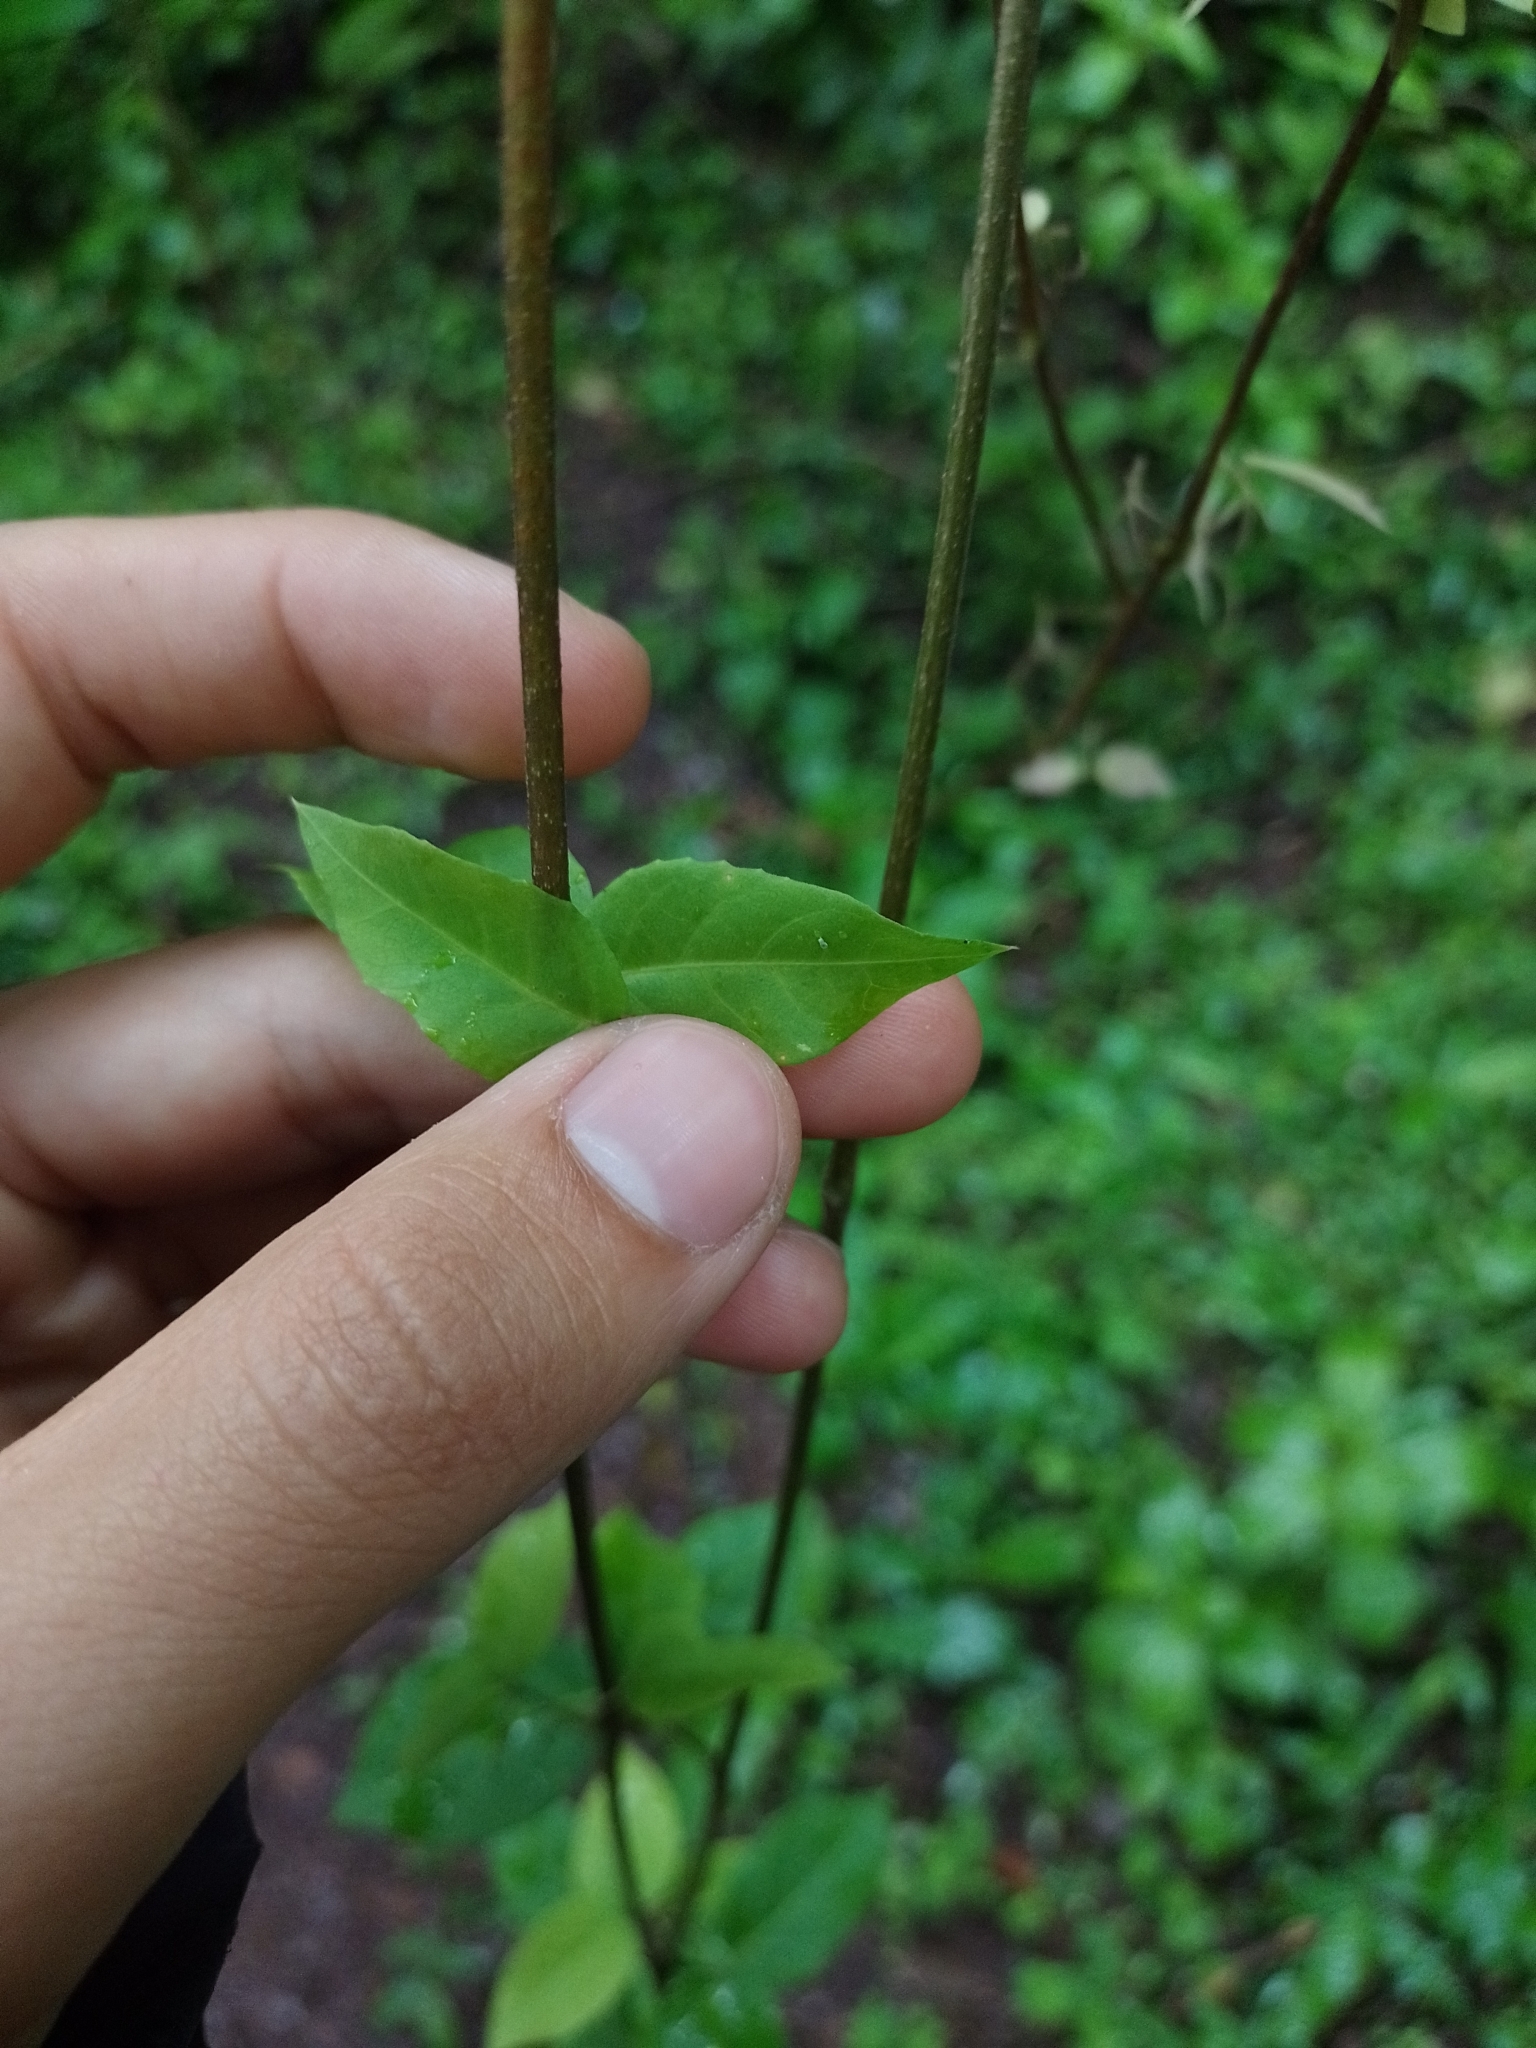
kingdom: Plantae
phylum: Tracheophyta
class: Magnoliopsida
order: Lamiales
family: Bignoniaceae
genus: Dolichandra
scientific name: Dolichandra unguis-cati
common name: Catclaw vine
